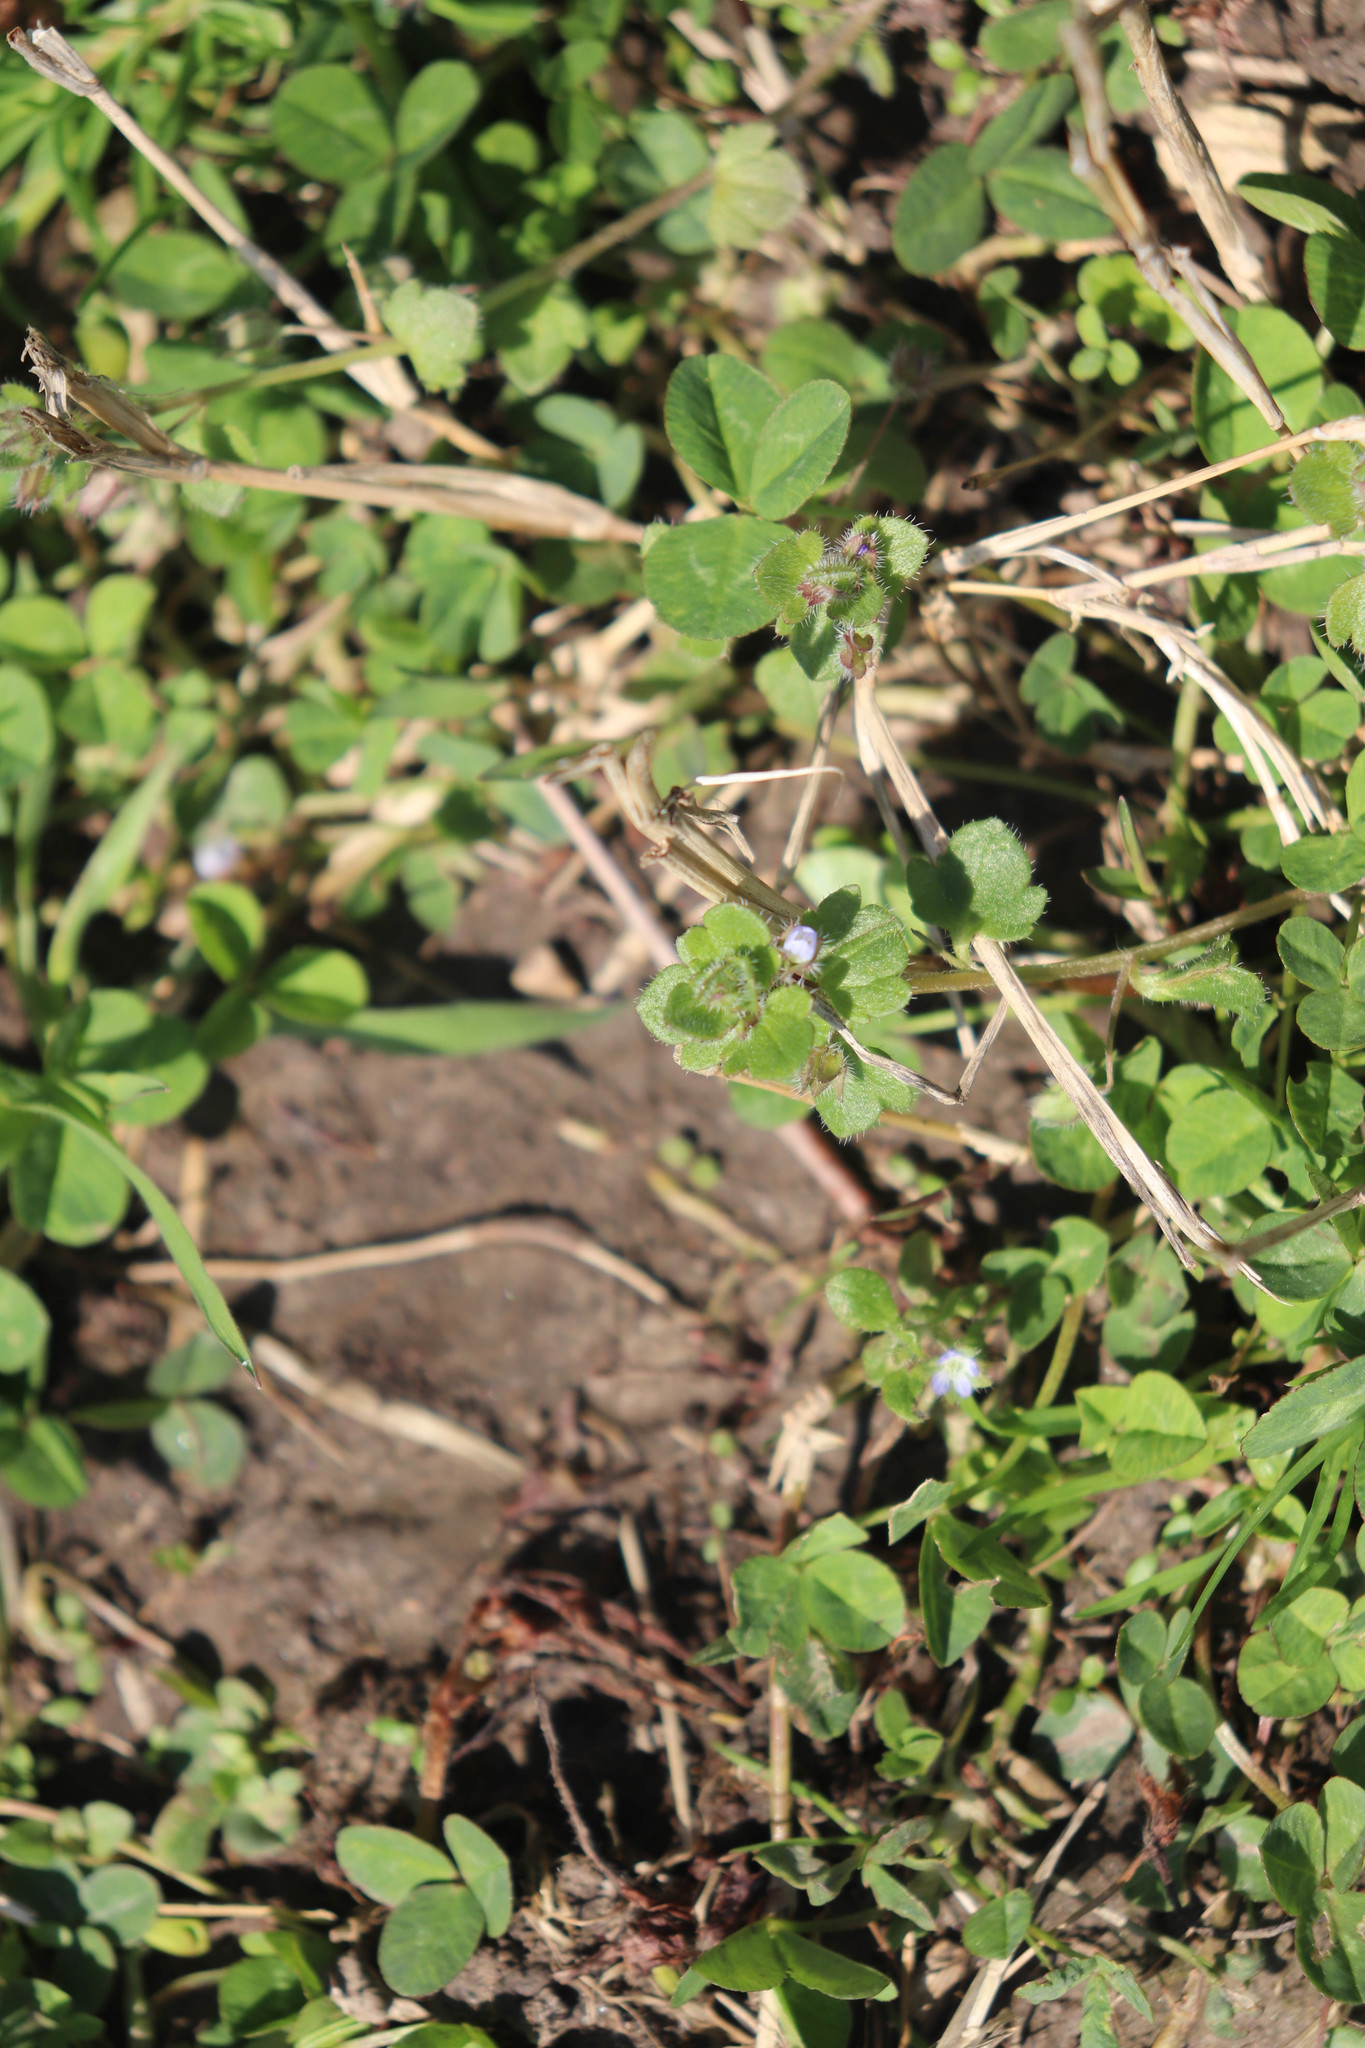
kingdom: Plantae
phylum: Tracheophyta
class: Magnoliopsida
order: Lamiales
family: Plantaginaceae
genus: Veronica
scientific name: Veronica hederifolia
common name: Ivy-leaved speedwell
